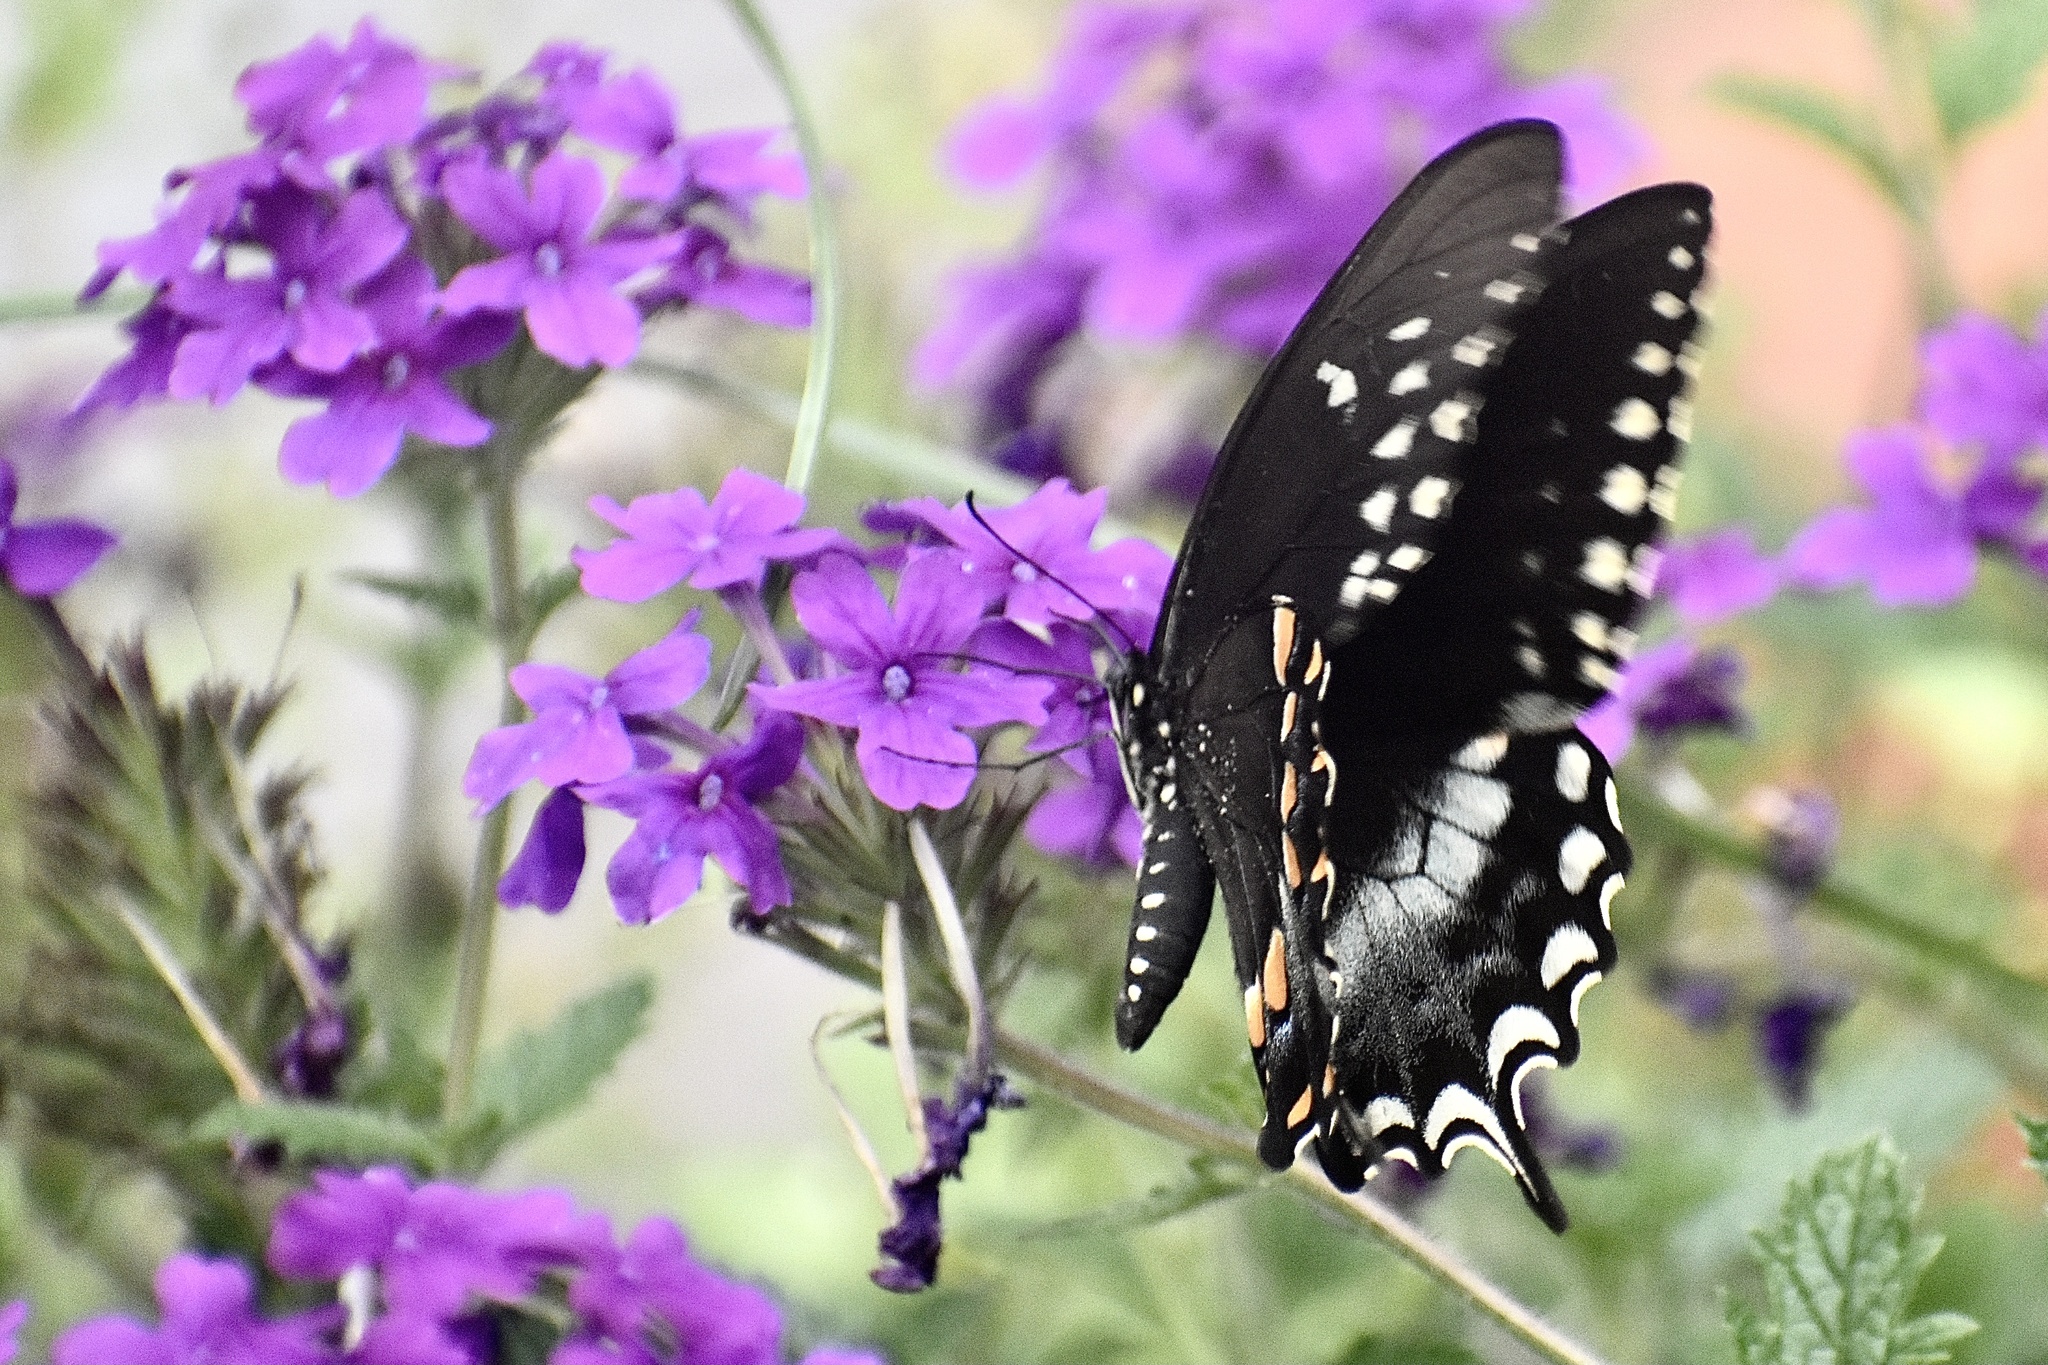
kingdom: Animalia
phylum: Arthropoda
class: Insecta
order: Lepidoptera
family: Papilionidae
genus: Papilio
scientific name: Papilio troilus
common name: Spicebush swallowtail
